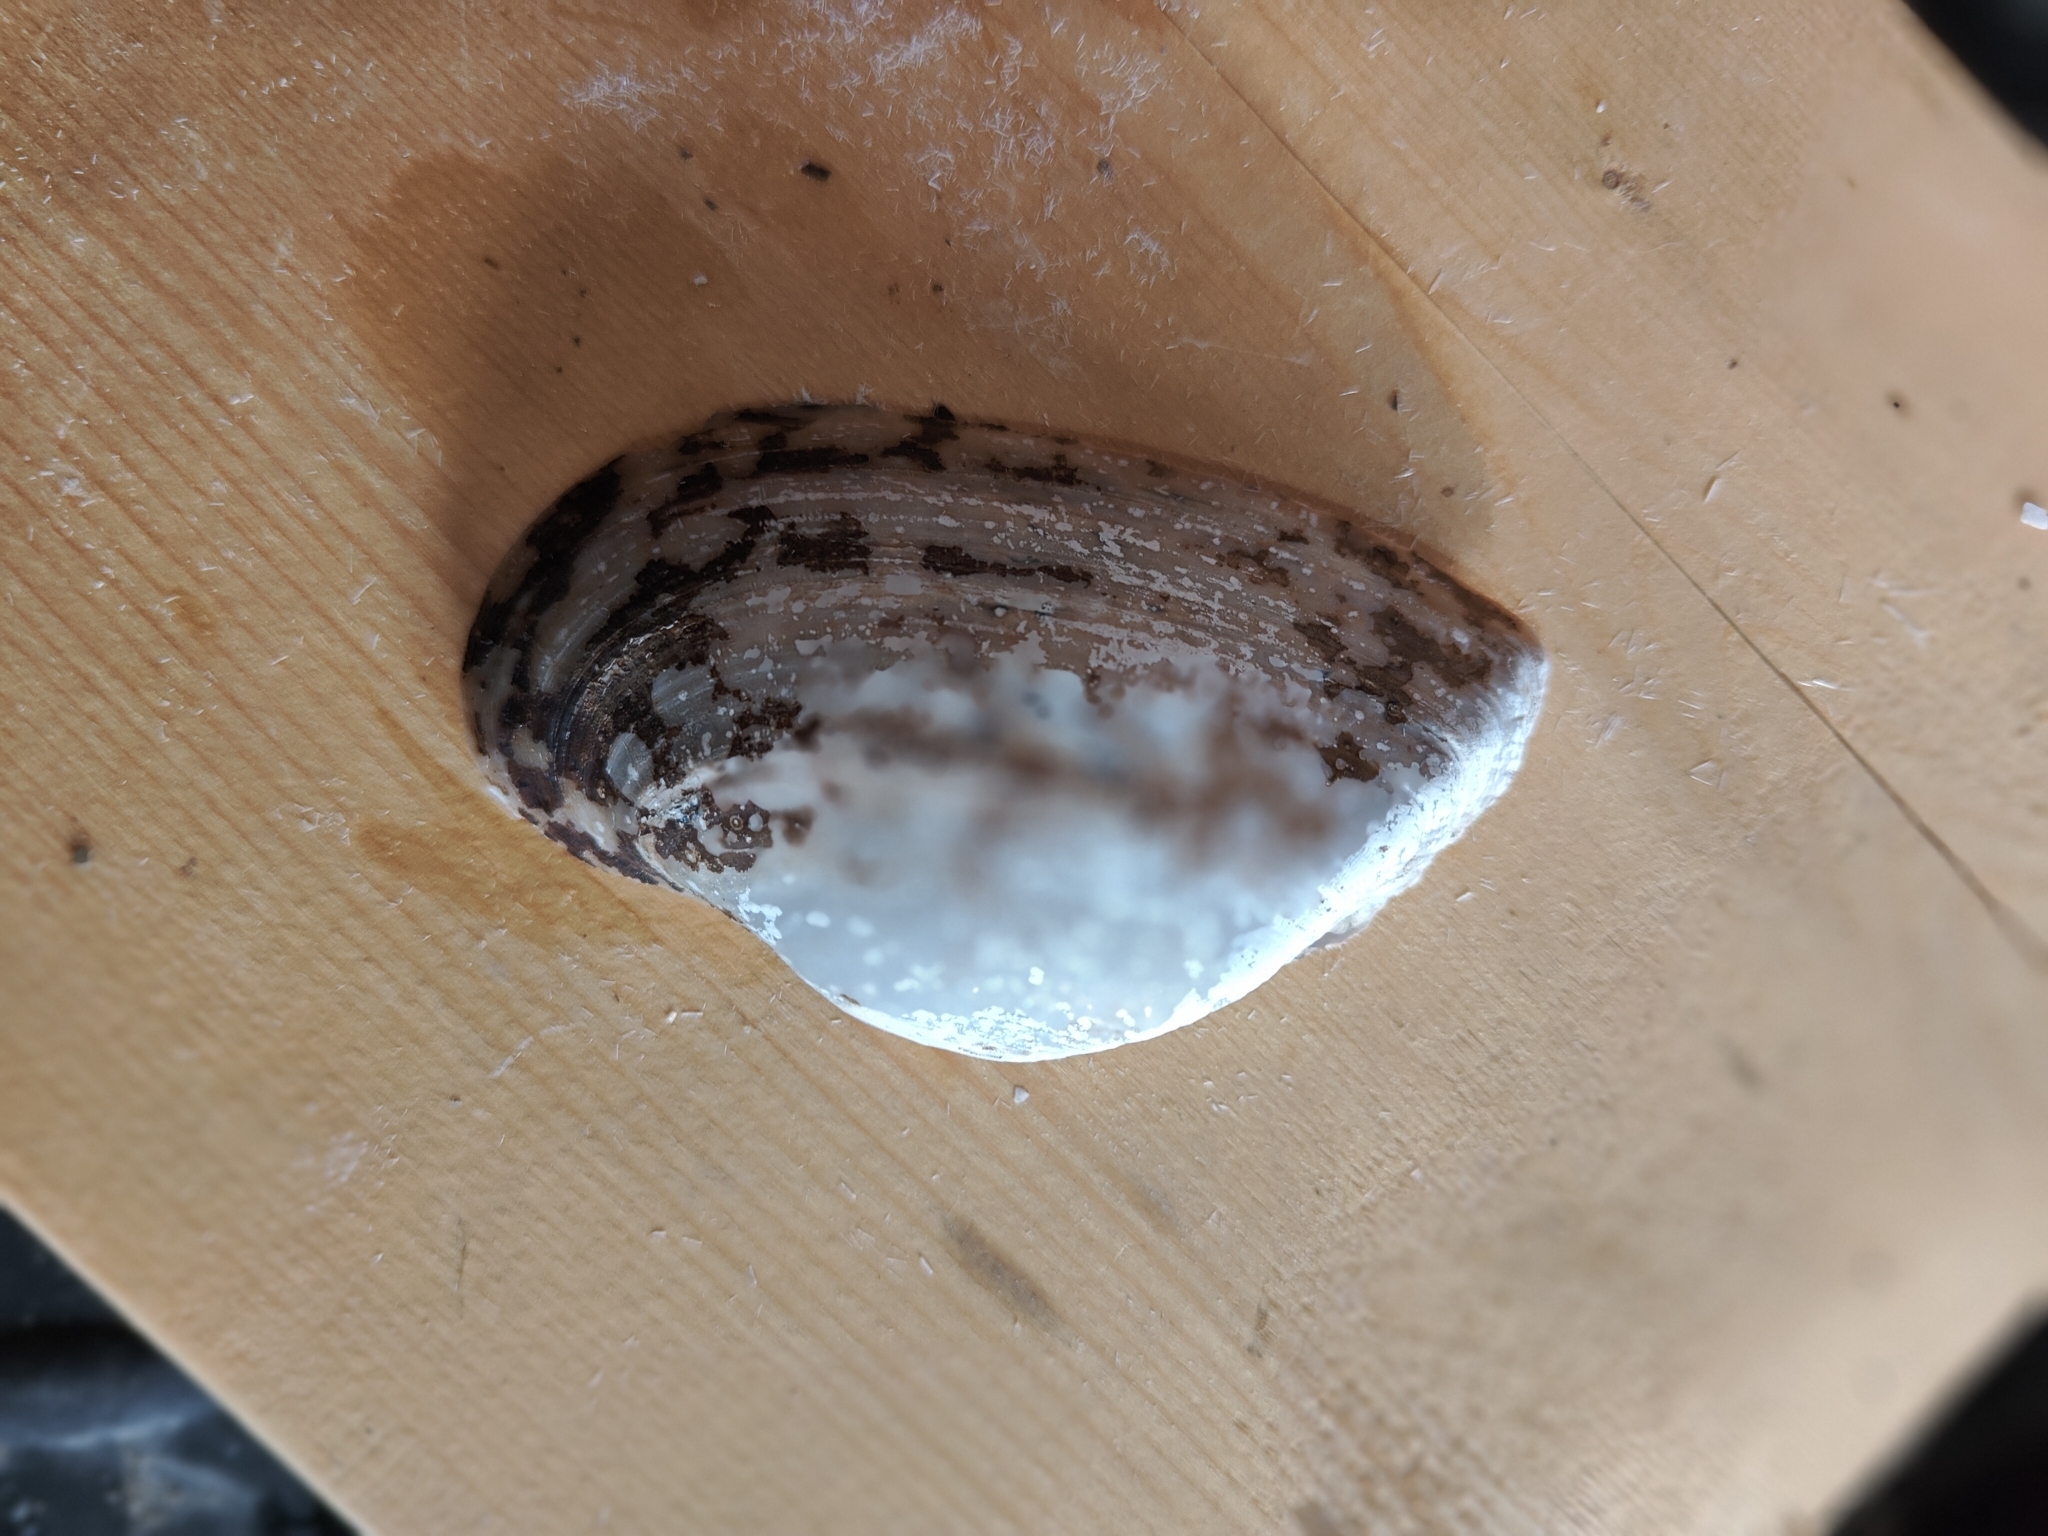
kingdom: Animalia
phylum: Mollusca
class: Bivalvia
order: Unionida
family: Unionidae
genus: Alasmidonta
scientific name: Alasmidonta marginata
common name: Elktoe
